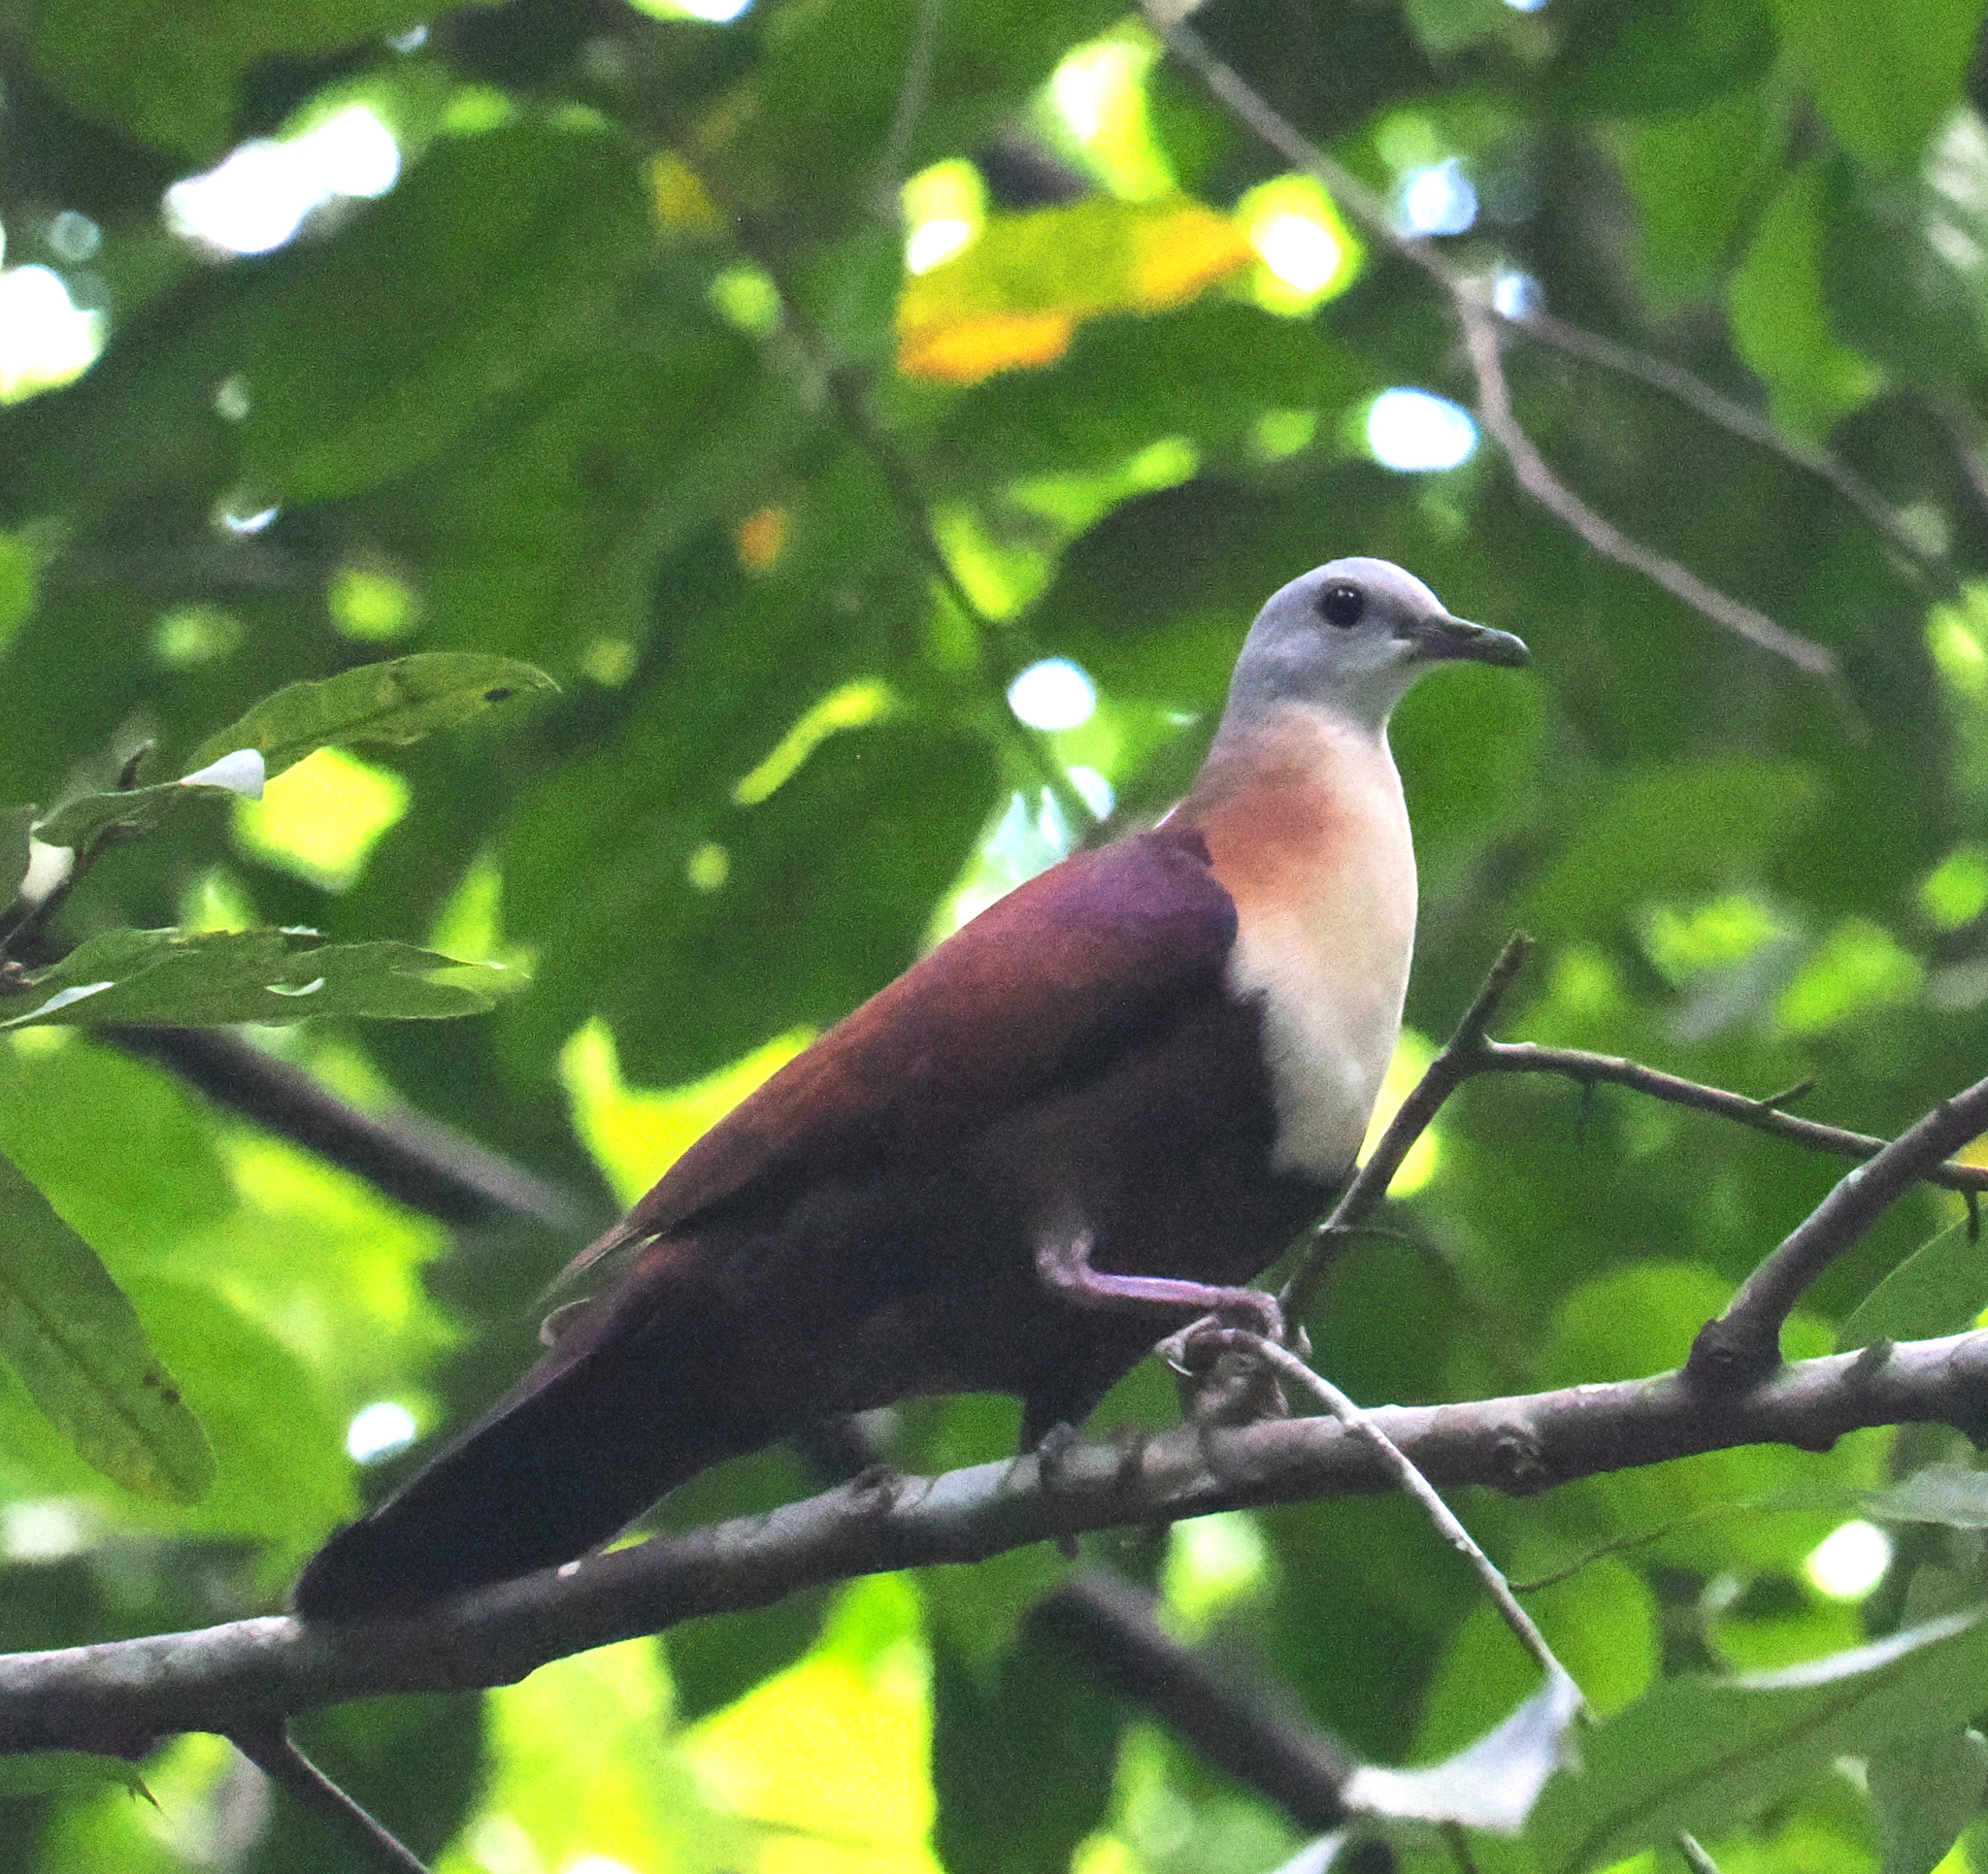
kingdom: Animalia
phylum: Chordata
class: Aves
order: Columbiformes
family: Columbidae
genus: Pampusana
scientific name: Pampusana hoedtii
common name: Wetar ground dove
